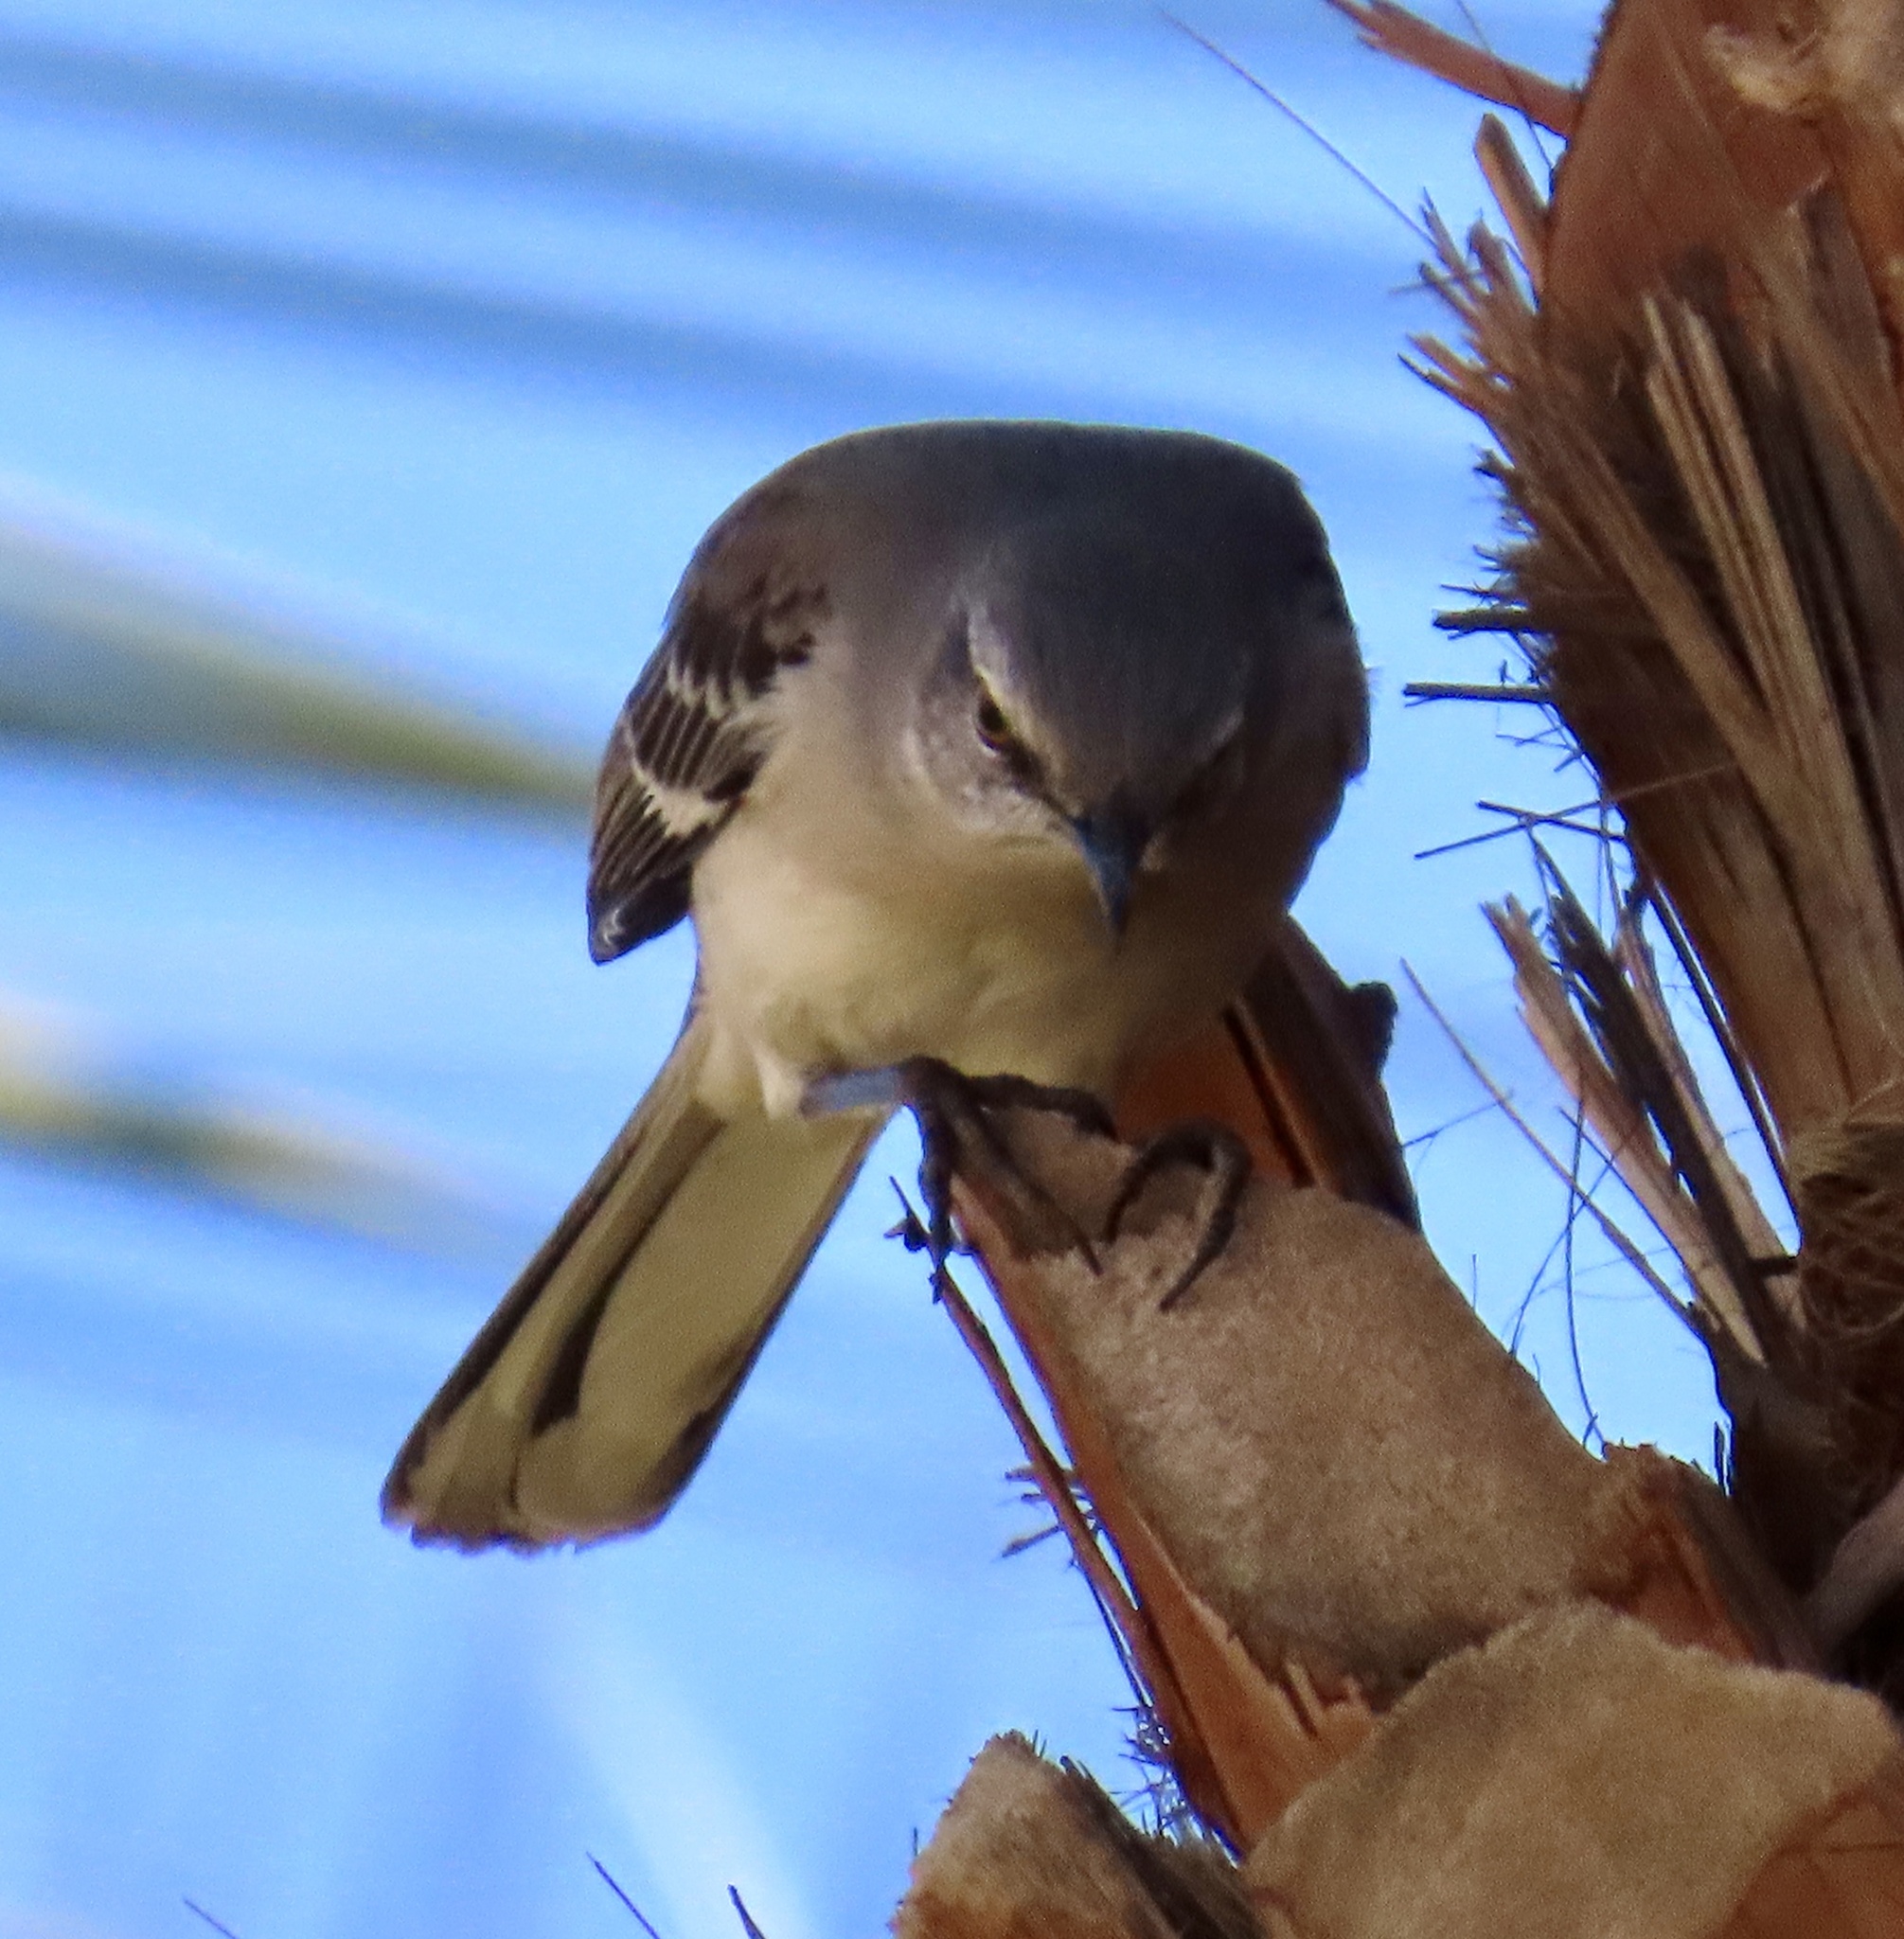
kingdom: Animalia
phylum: Chordata
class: Aves
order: Passeriformes
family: Mimidae
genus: Mimus
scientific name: Mimus polyglottos
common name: Northern mockingbird
